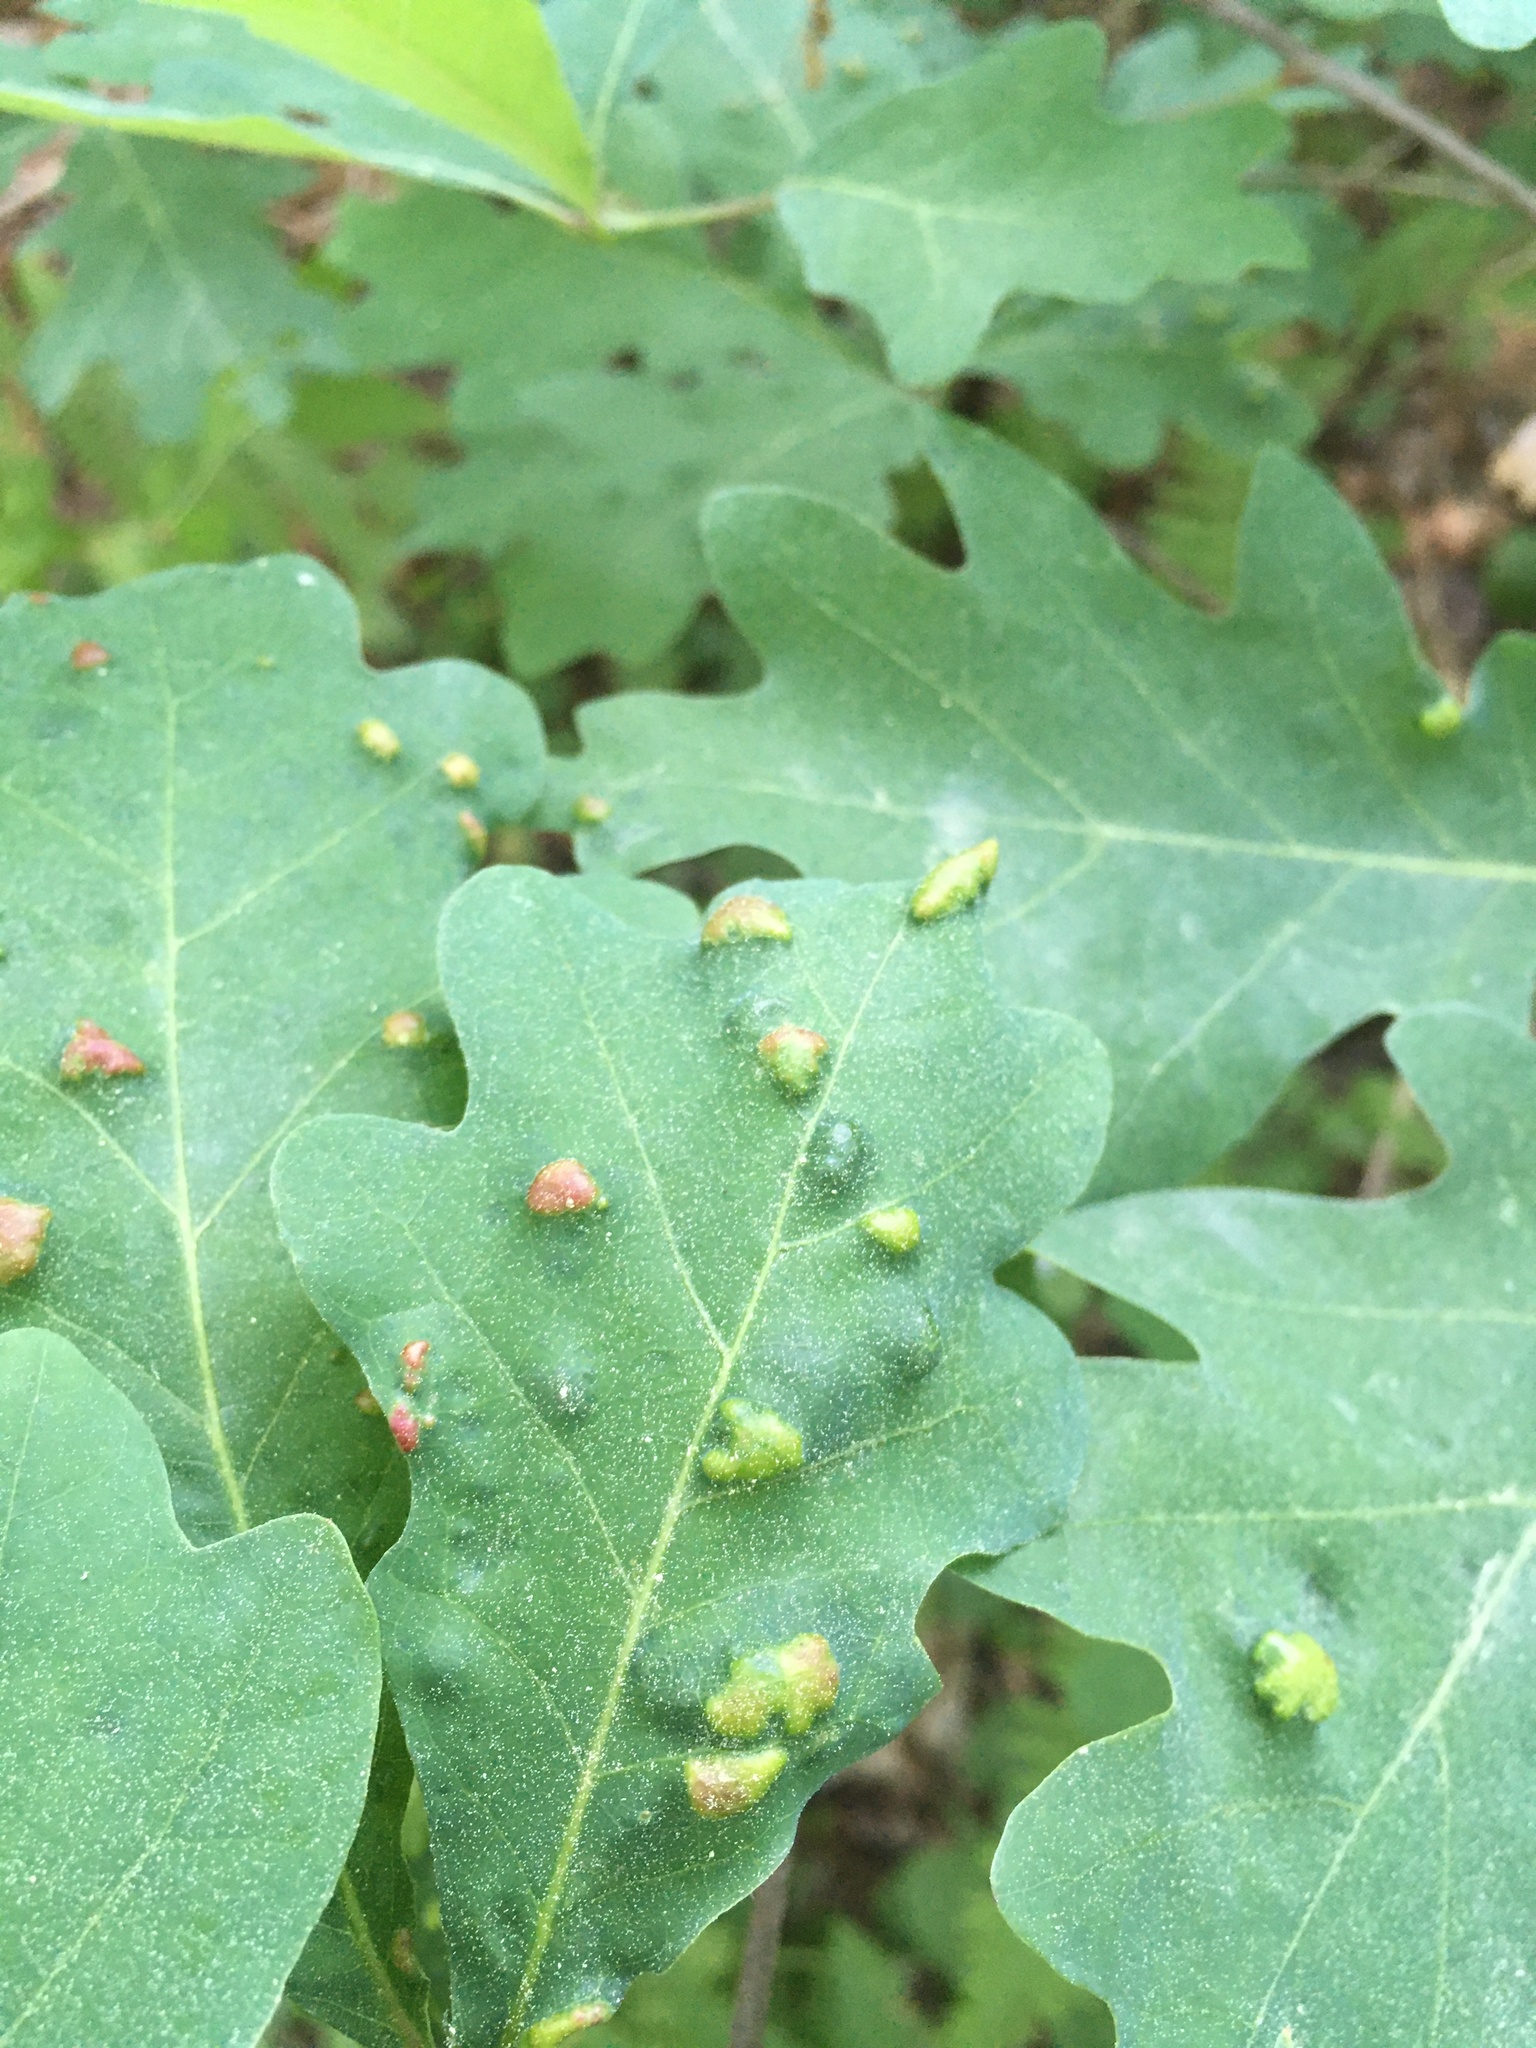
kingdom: Animalia
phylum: Arthropoda
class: Arachnida
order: Trombidiformes
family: Eriophyidae
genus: Aceria
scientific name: Aceria
